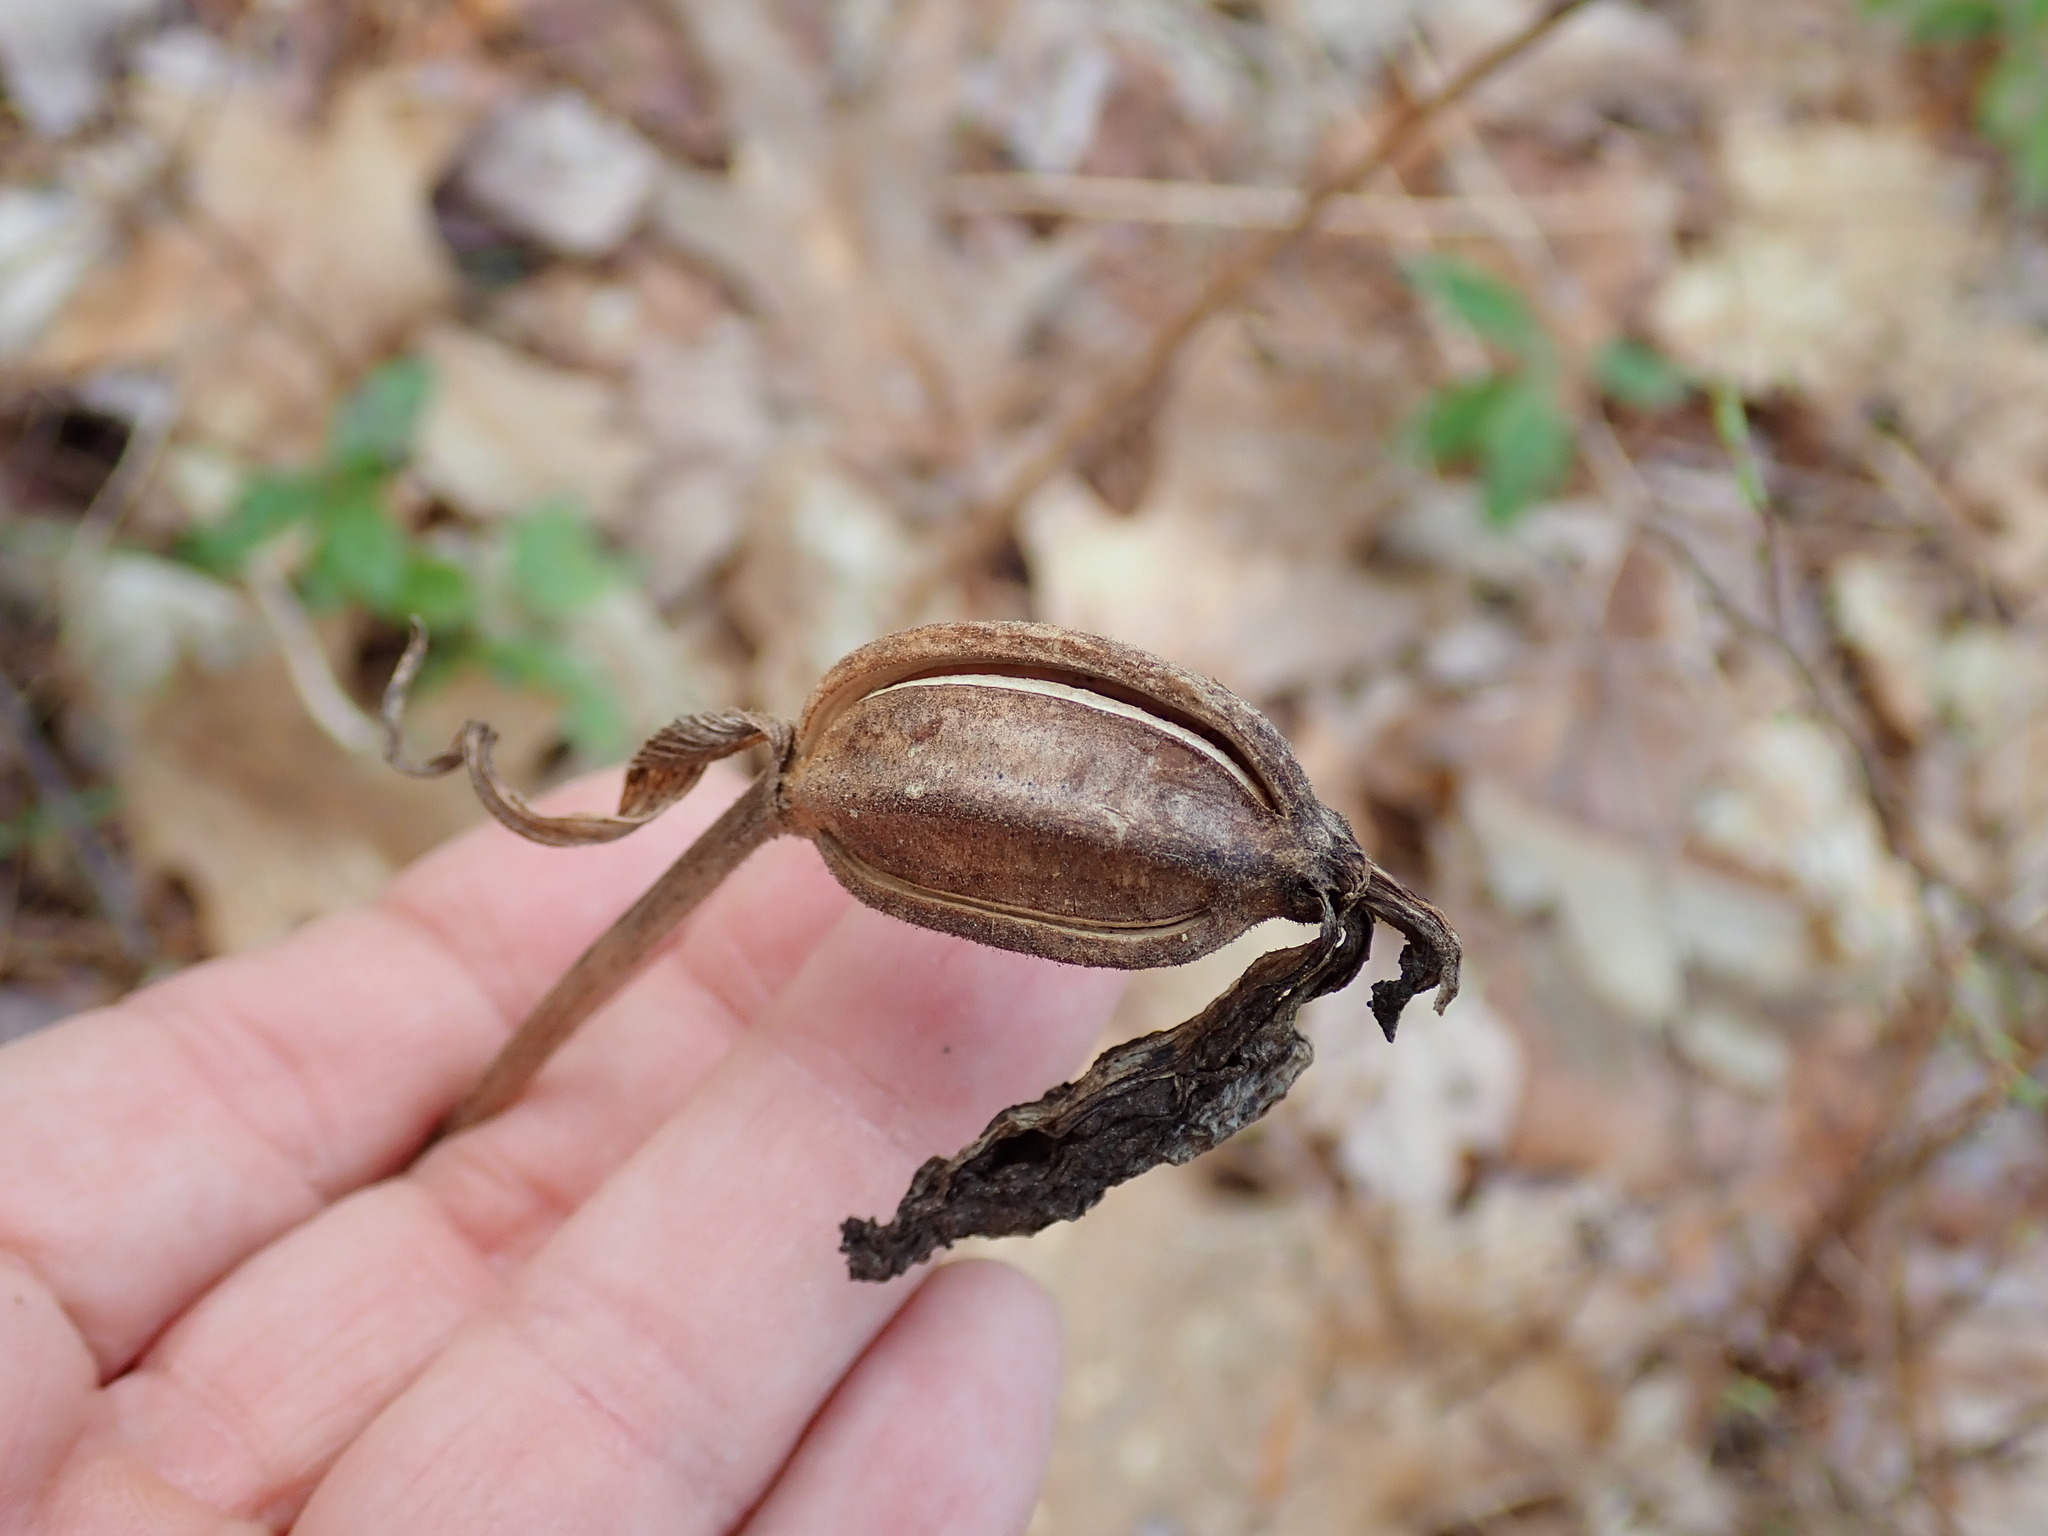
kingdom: Plantae
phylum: Tracheophyta
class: Liliopsida
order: Asparagales
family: Orchidaceae
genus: Cypripedium
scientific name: Cypripedium acaule
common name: Pink lady's-slipper
